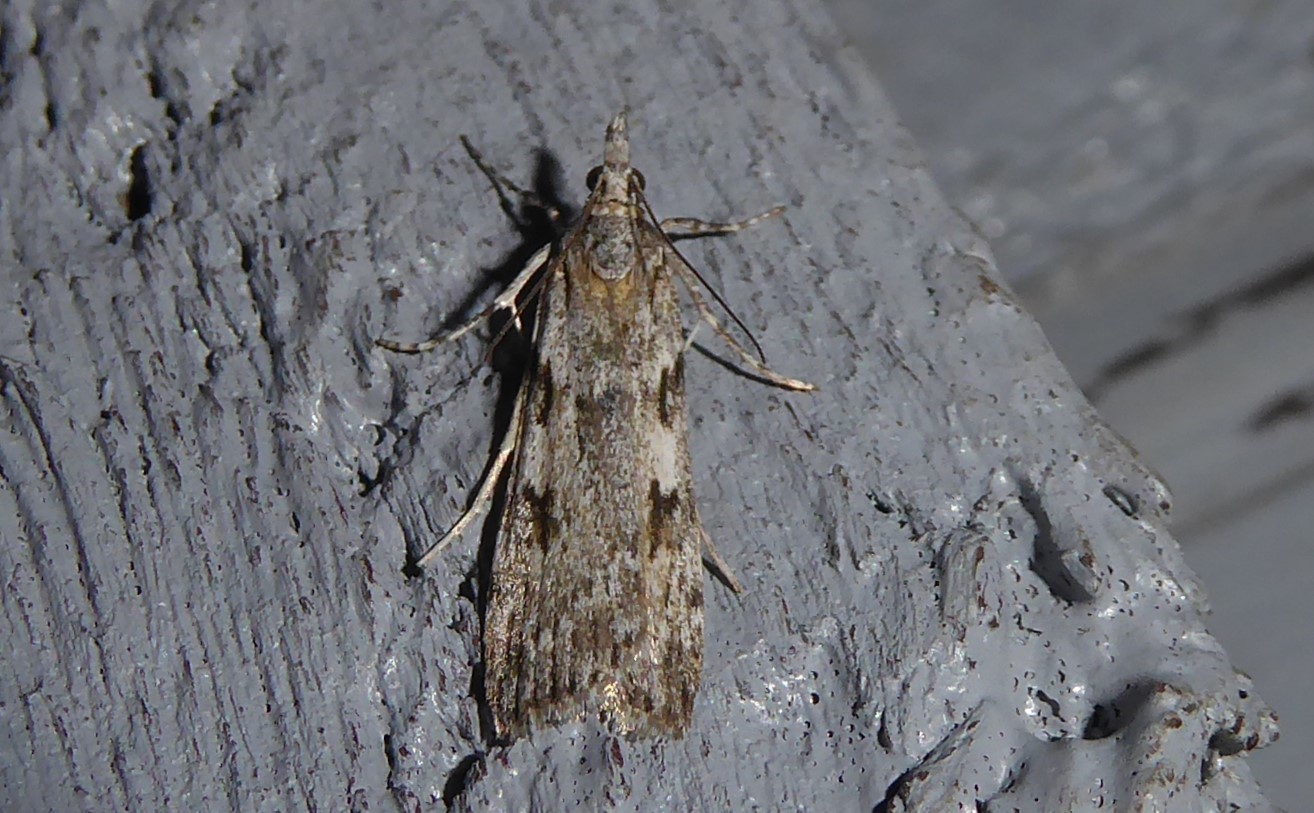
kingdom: Animalia
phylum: Arthropoda
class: Insecta
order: Lepidoptera
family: Crambidae
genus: Scoparia
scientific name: Scoparia halopis
